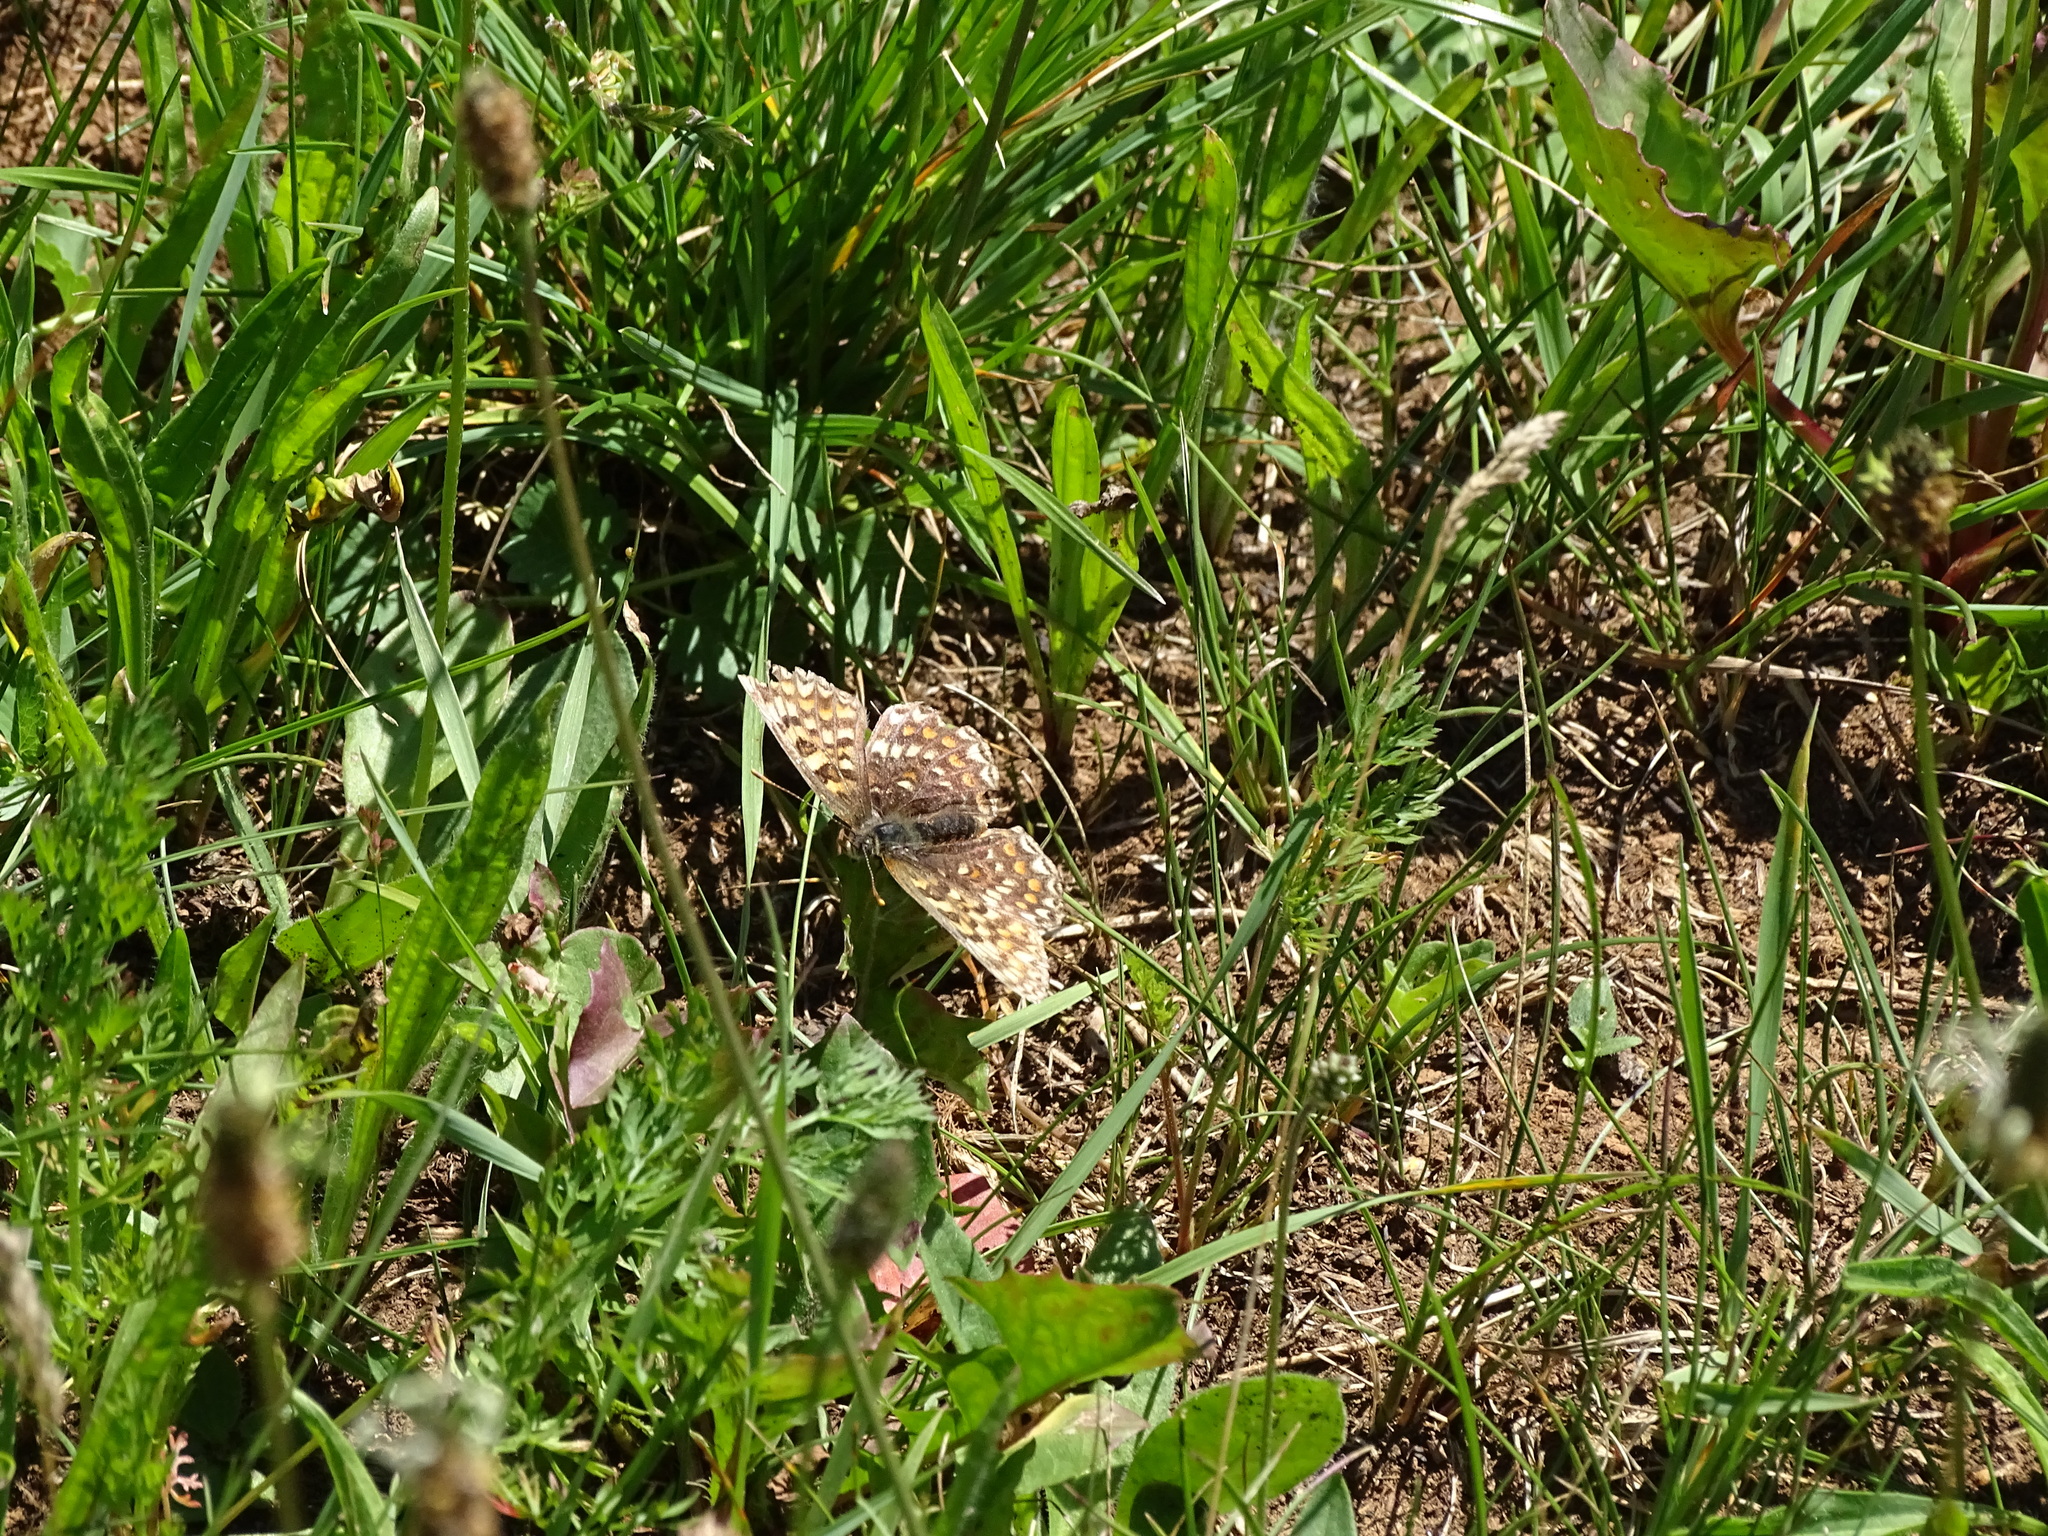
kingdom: Animalia
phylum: Arthropoda
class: Insecta
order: Lepidoptera
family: Nymphalidae
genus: Melitaea
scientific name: Melitaea phoebe
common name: Knapweed fritillary
